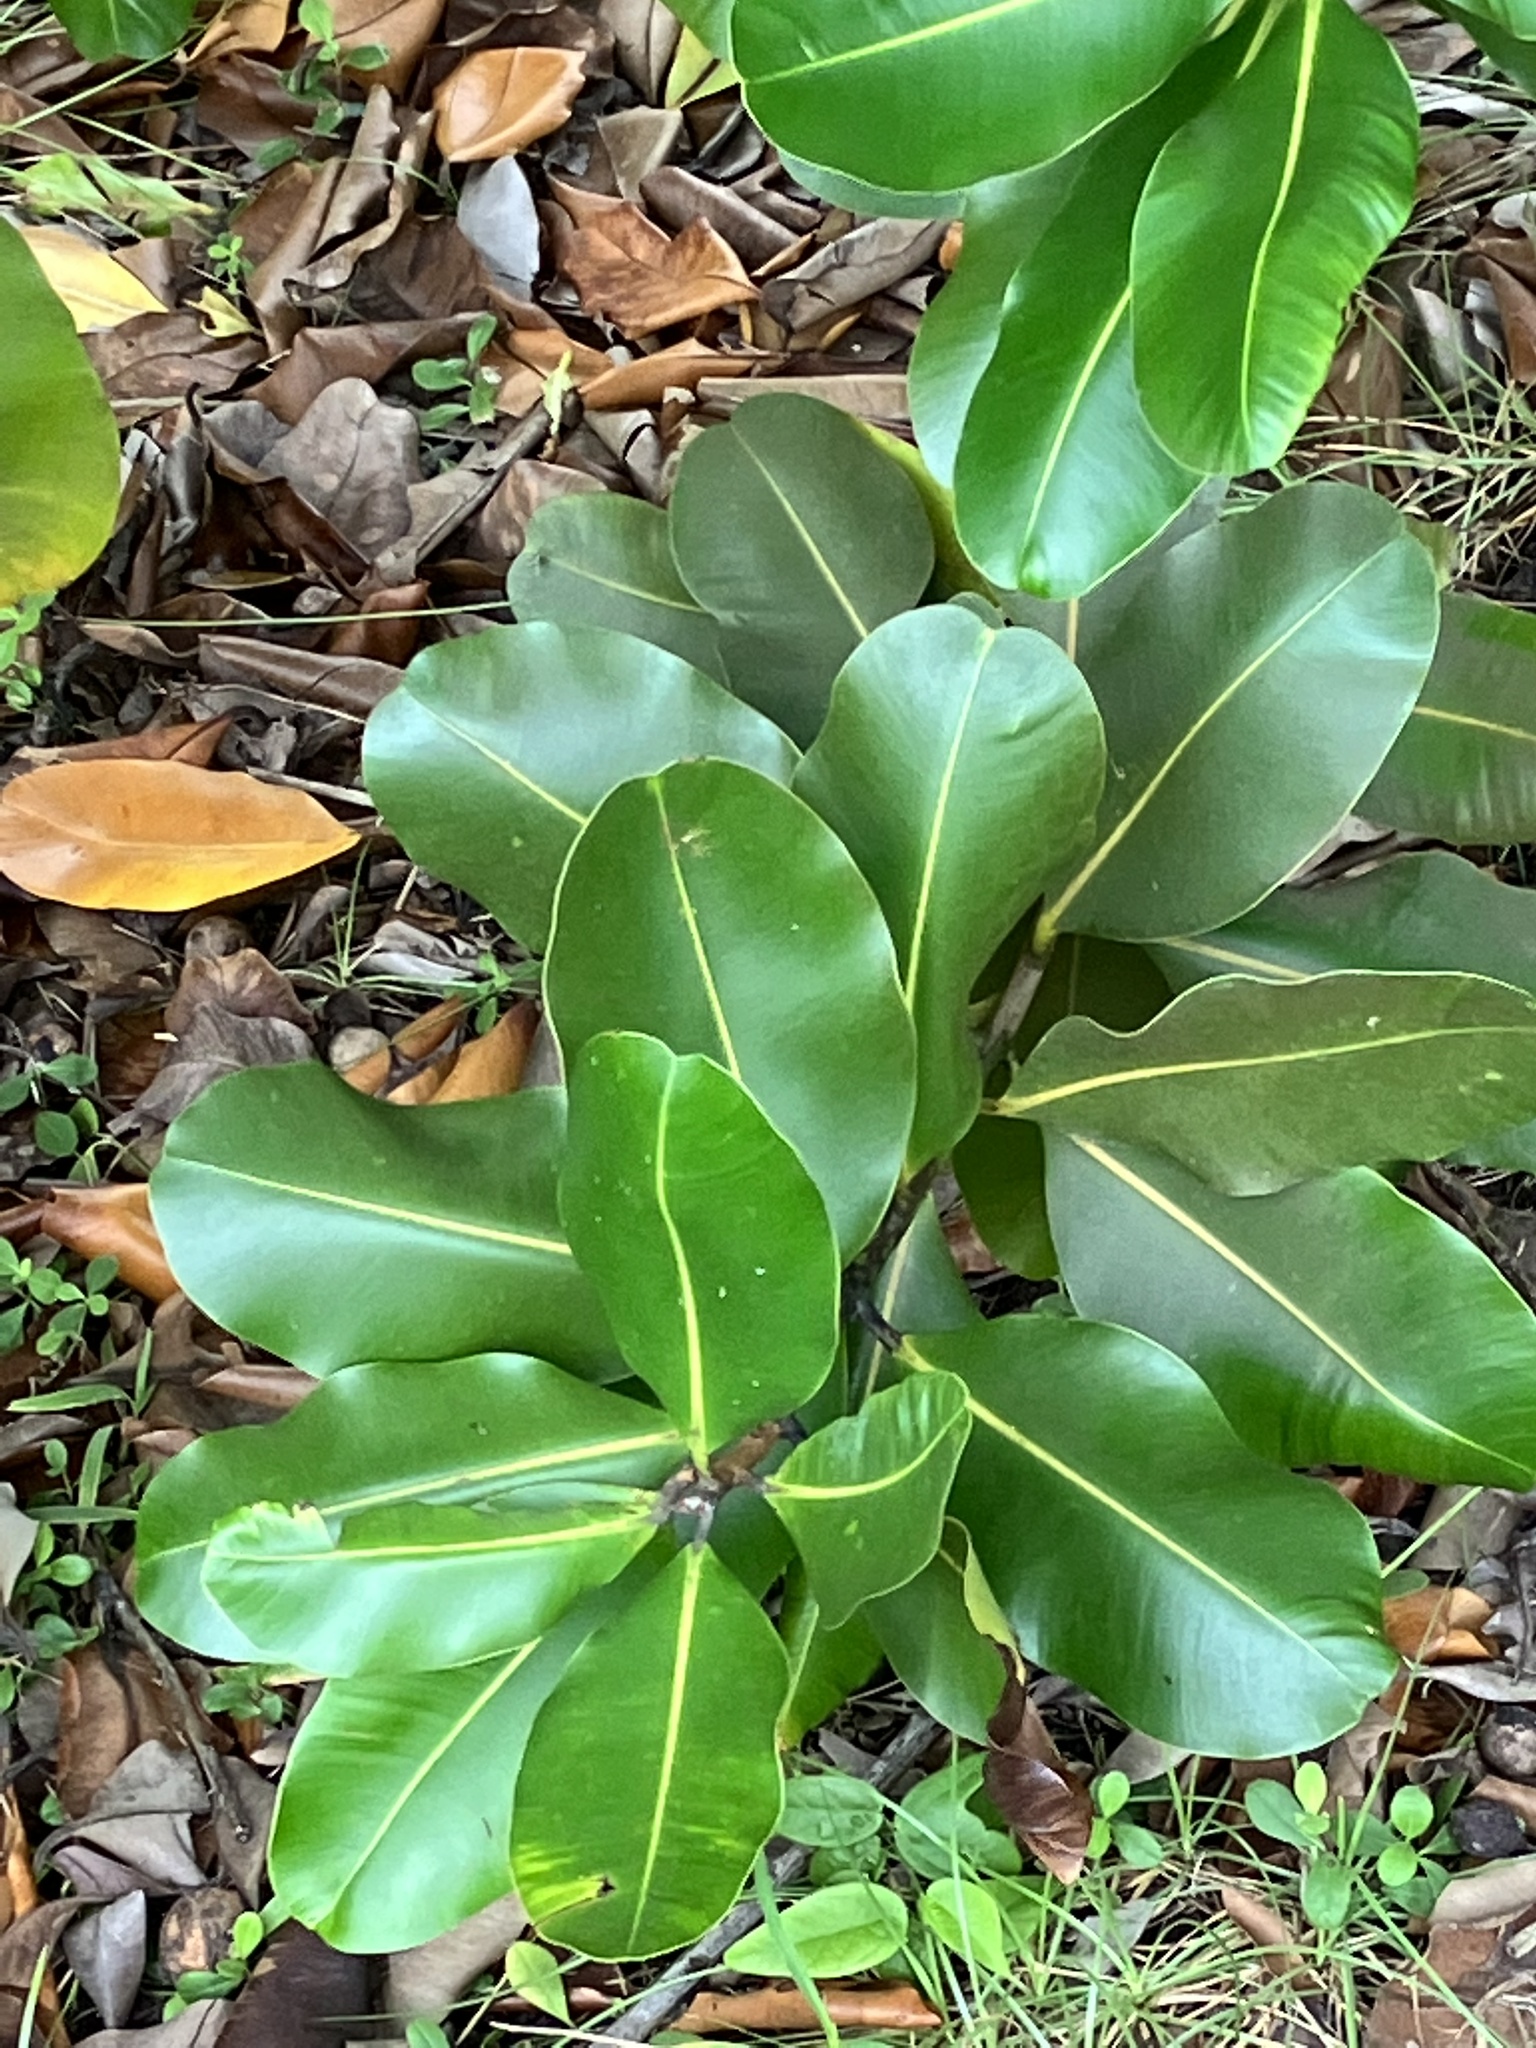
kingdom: Plantae
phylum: Tracheophyta
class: Magnoliopsida
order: Malpighiales
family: Calophyllaceae
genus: Calophyllum
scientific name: Calophyllum inophyllum
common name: Alexandrian laurel
